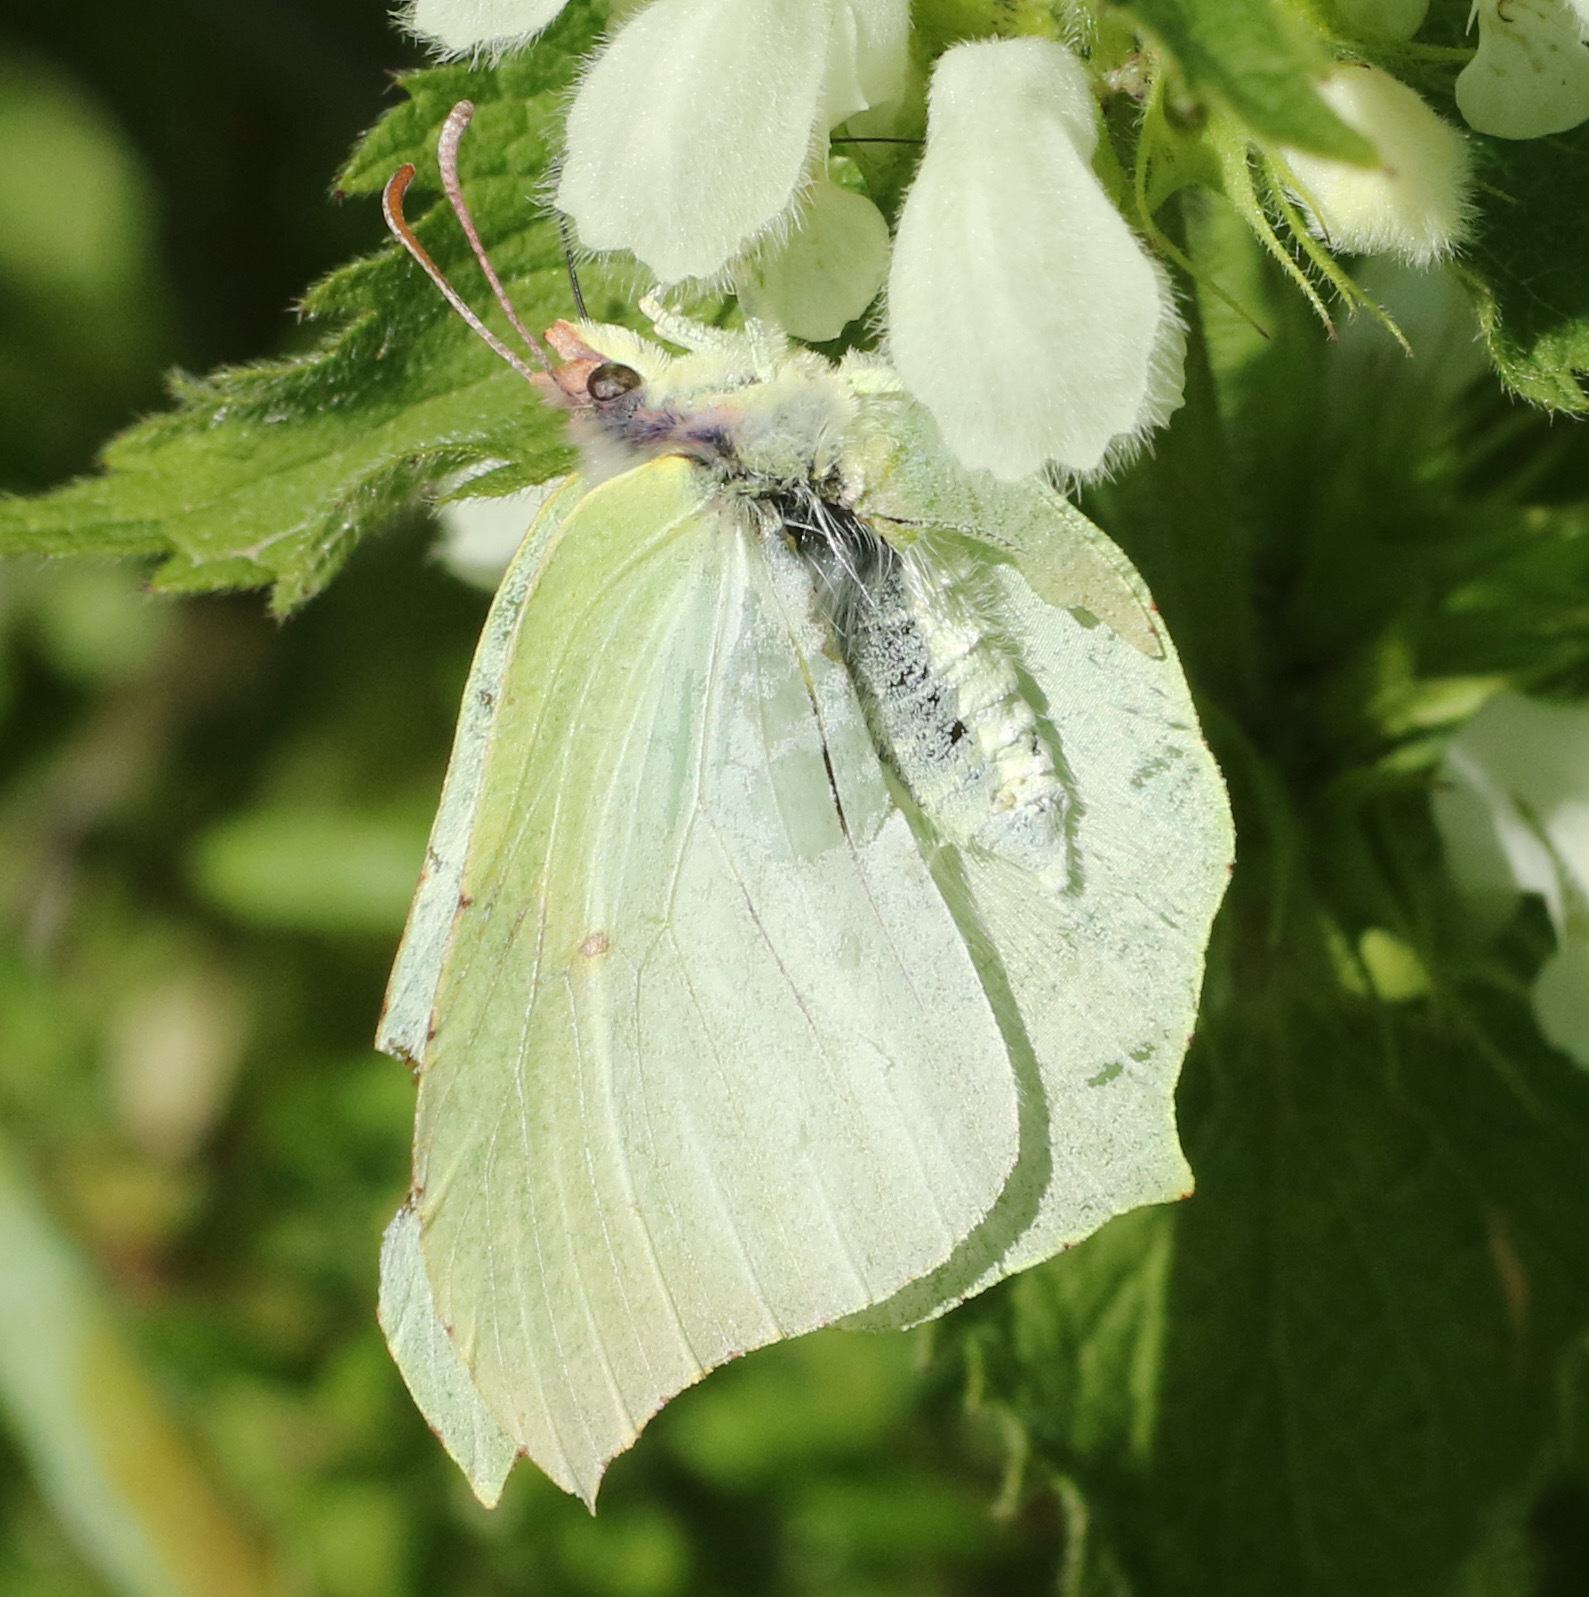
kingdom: Animalia
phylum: Arthropoda
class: Insecta
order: Lepidoptera
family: Pieridae
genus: Gonepteryx
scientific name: Gonepteryx rhamni
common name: Brimstone
